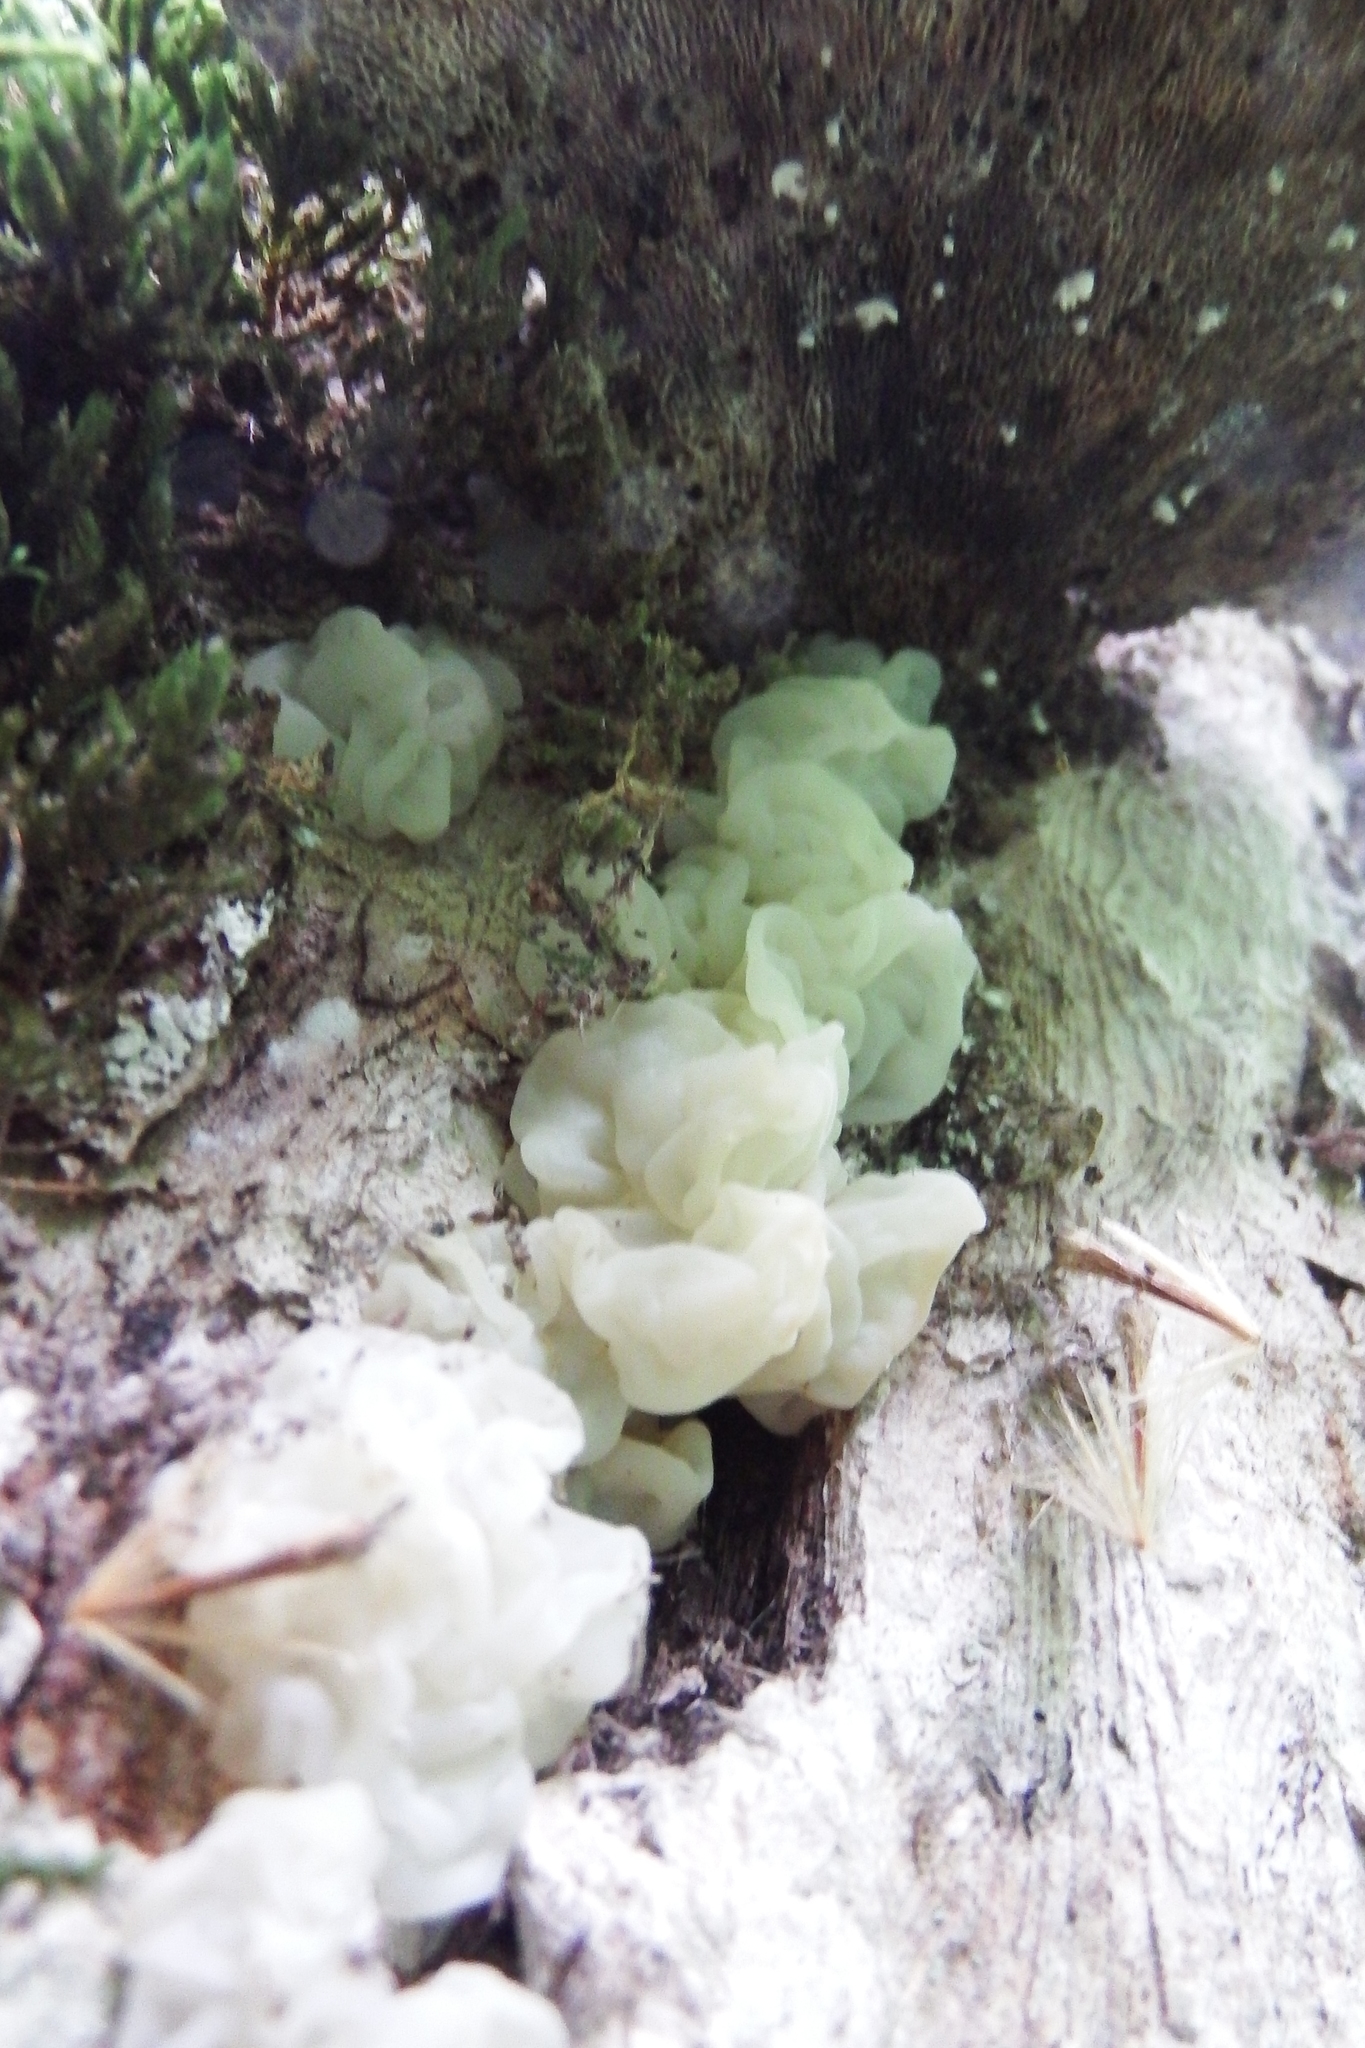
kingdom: Fungi
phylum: Basidiomycota
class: Agaricomycetes
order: Auriculariales
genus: Ductifera
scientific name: Ductifera pululahuana
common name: White jelly fungus
